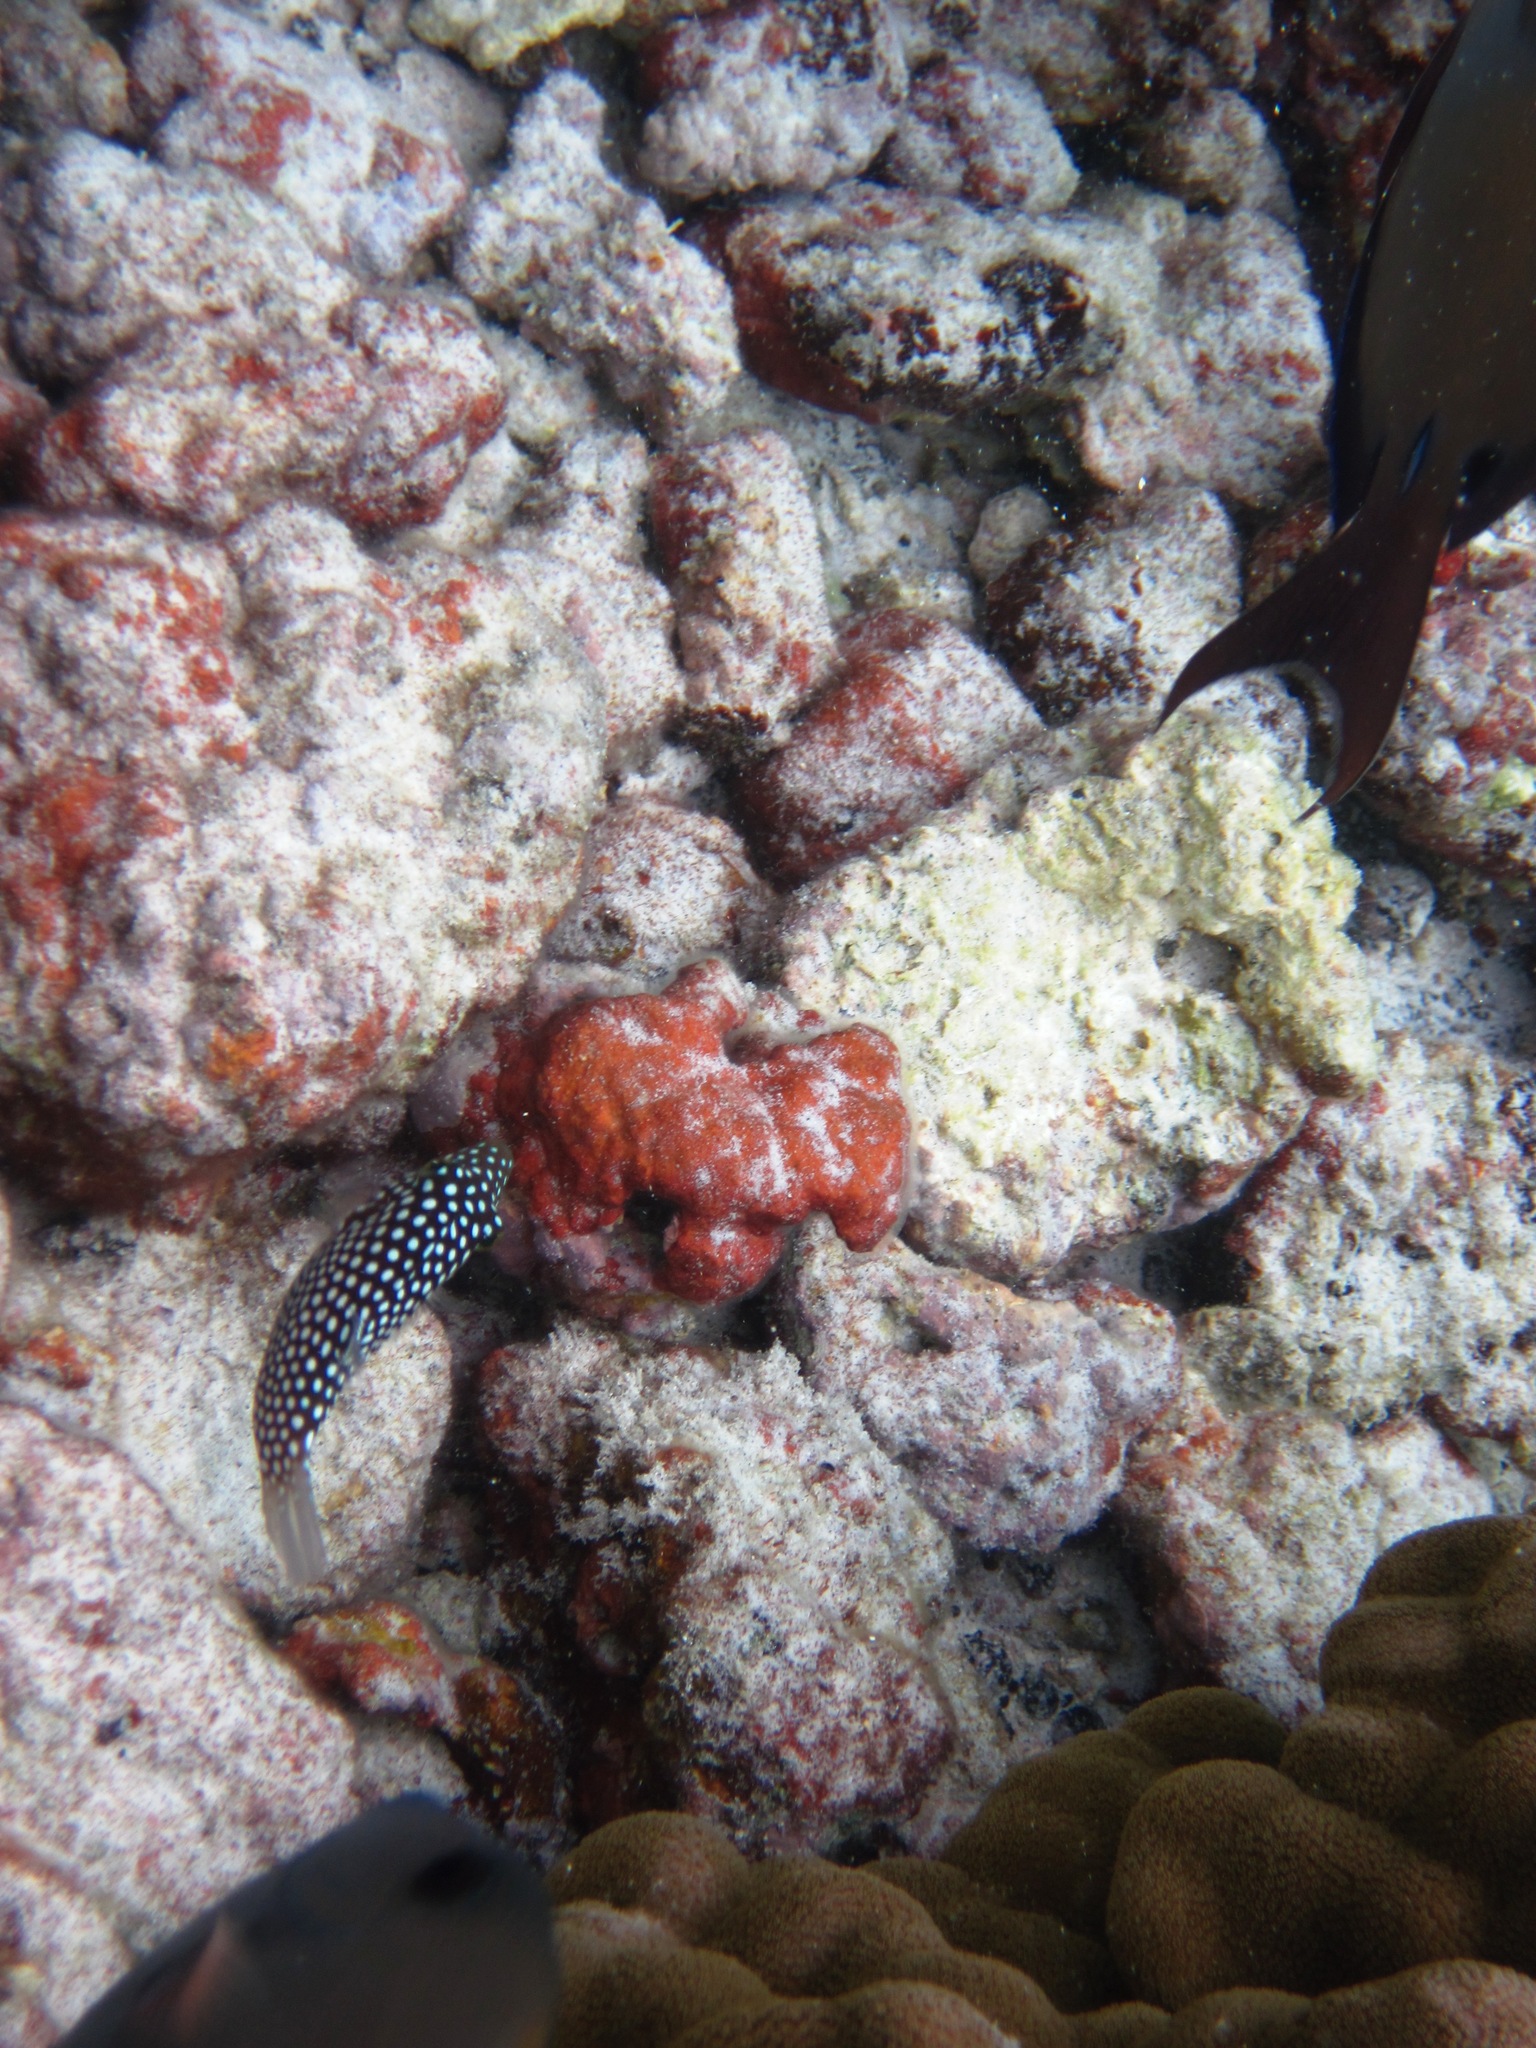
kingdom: Animalia
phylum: Chordata
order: Tetraodontiformes
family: Tetraodontidae
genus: Canthigaster
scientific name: Canthigaster jactator
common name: Hawaiian whitespotted toby
